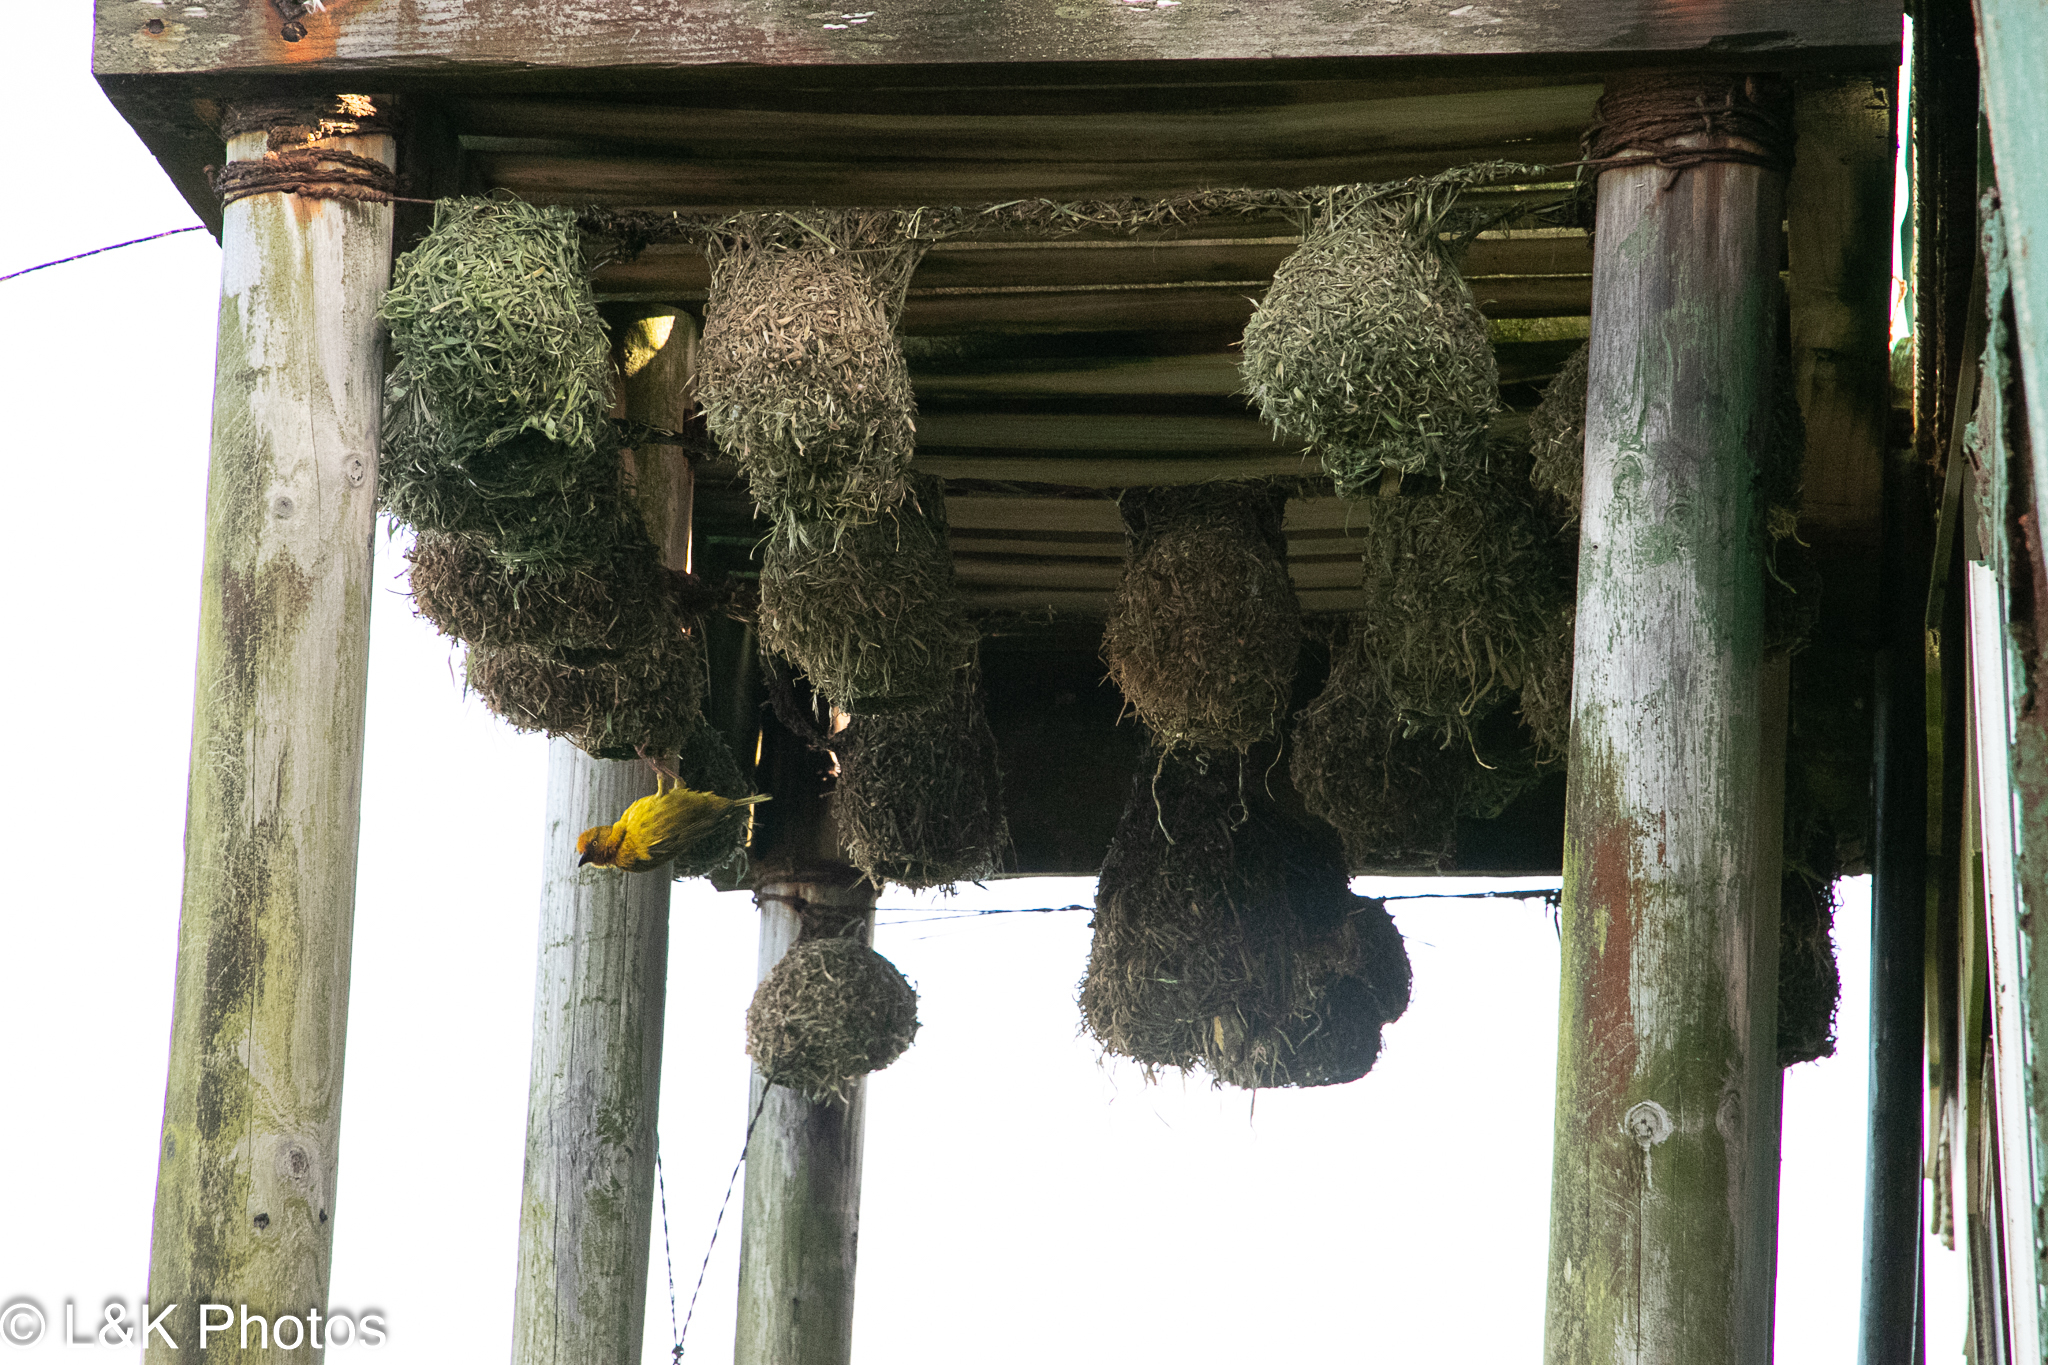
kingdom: Animalia
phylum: Chordata
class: Aves
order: Passeriformes
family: Ploceidae
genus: Ploceus
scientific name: Ploceus capensis
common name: Cape weaver
